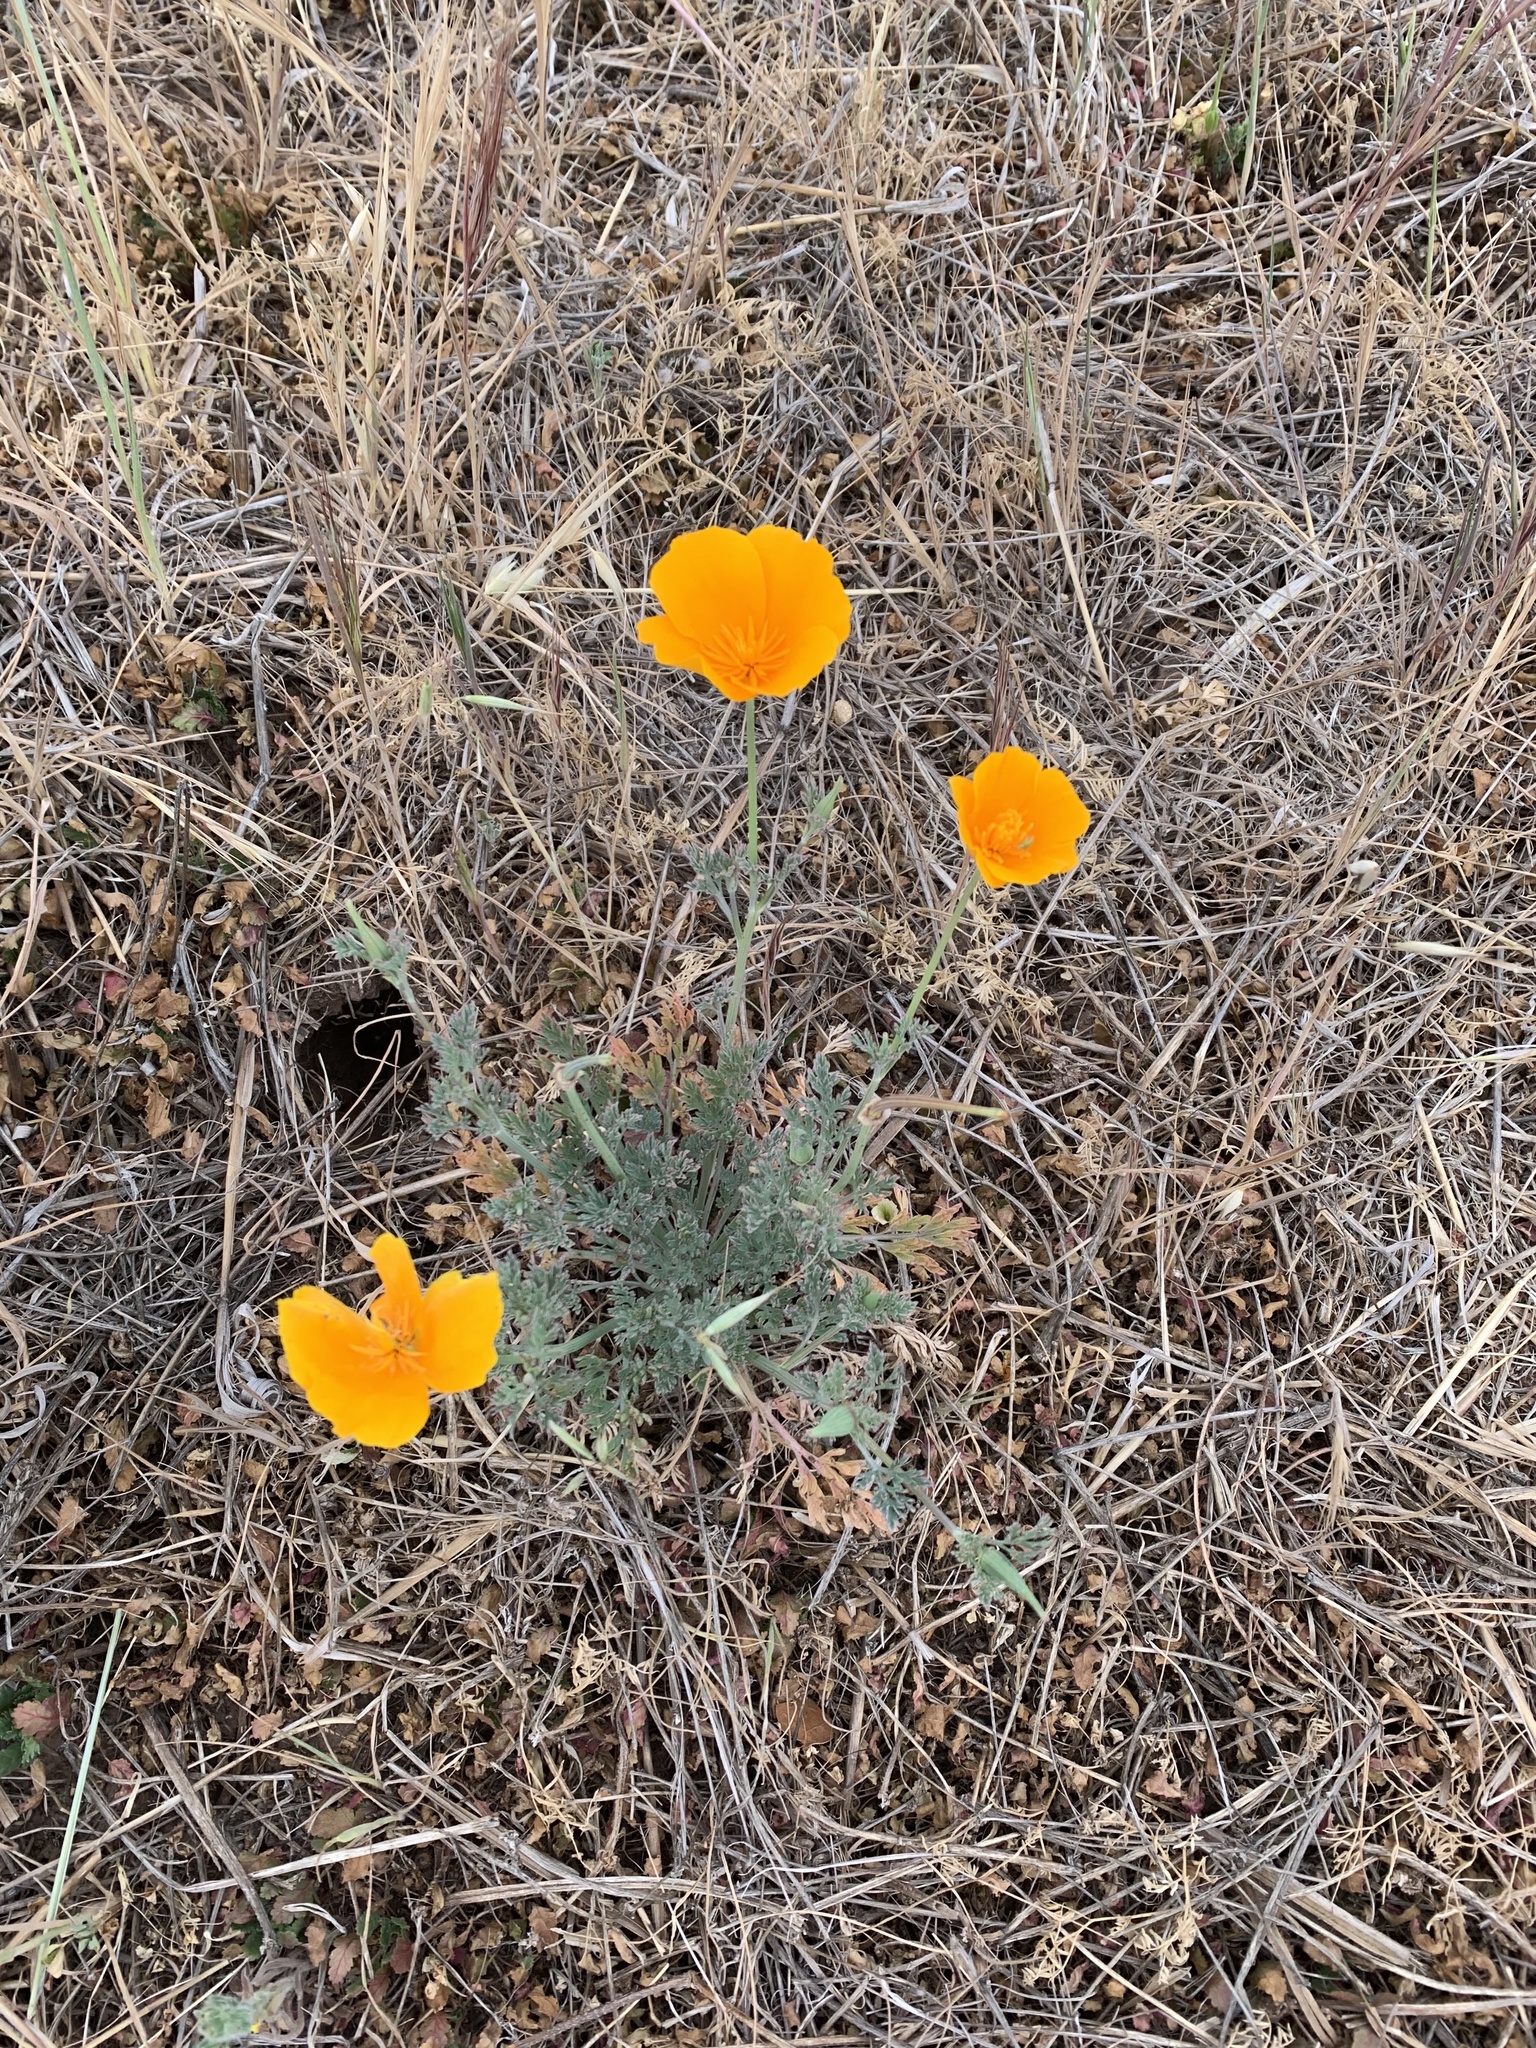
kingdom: Plantae
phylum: Tracheophyta
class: Magnoliopsida
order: Ranunculales
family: Papaveraceae
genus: Eschscholzia
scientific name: Eschscholzia californica
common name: California poppy
